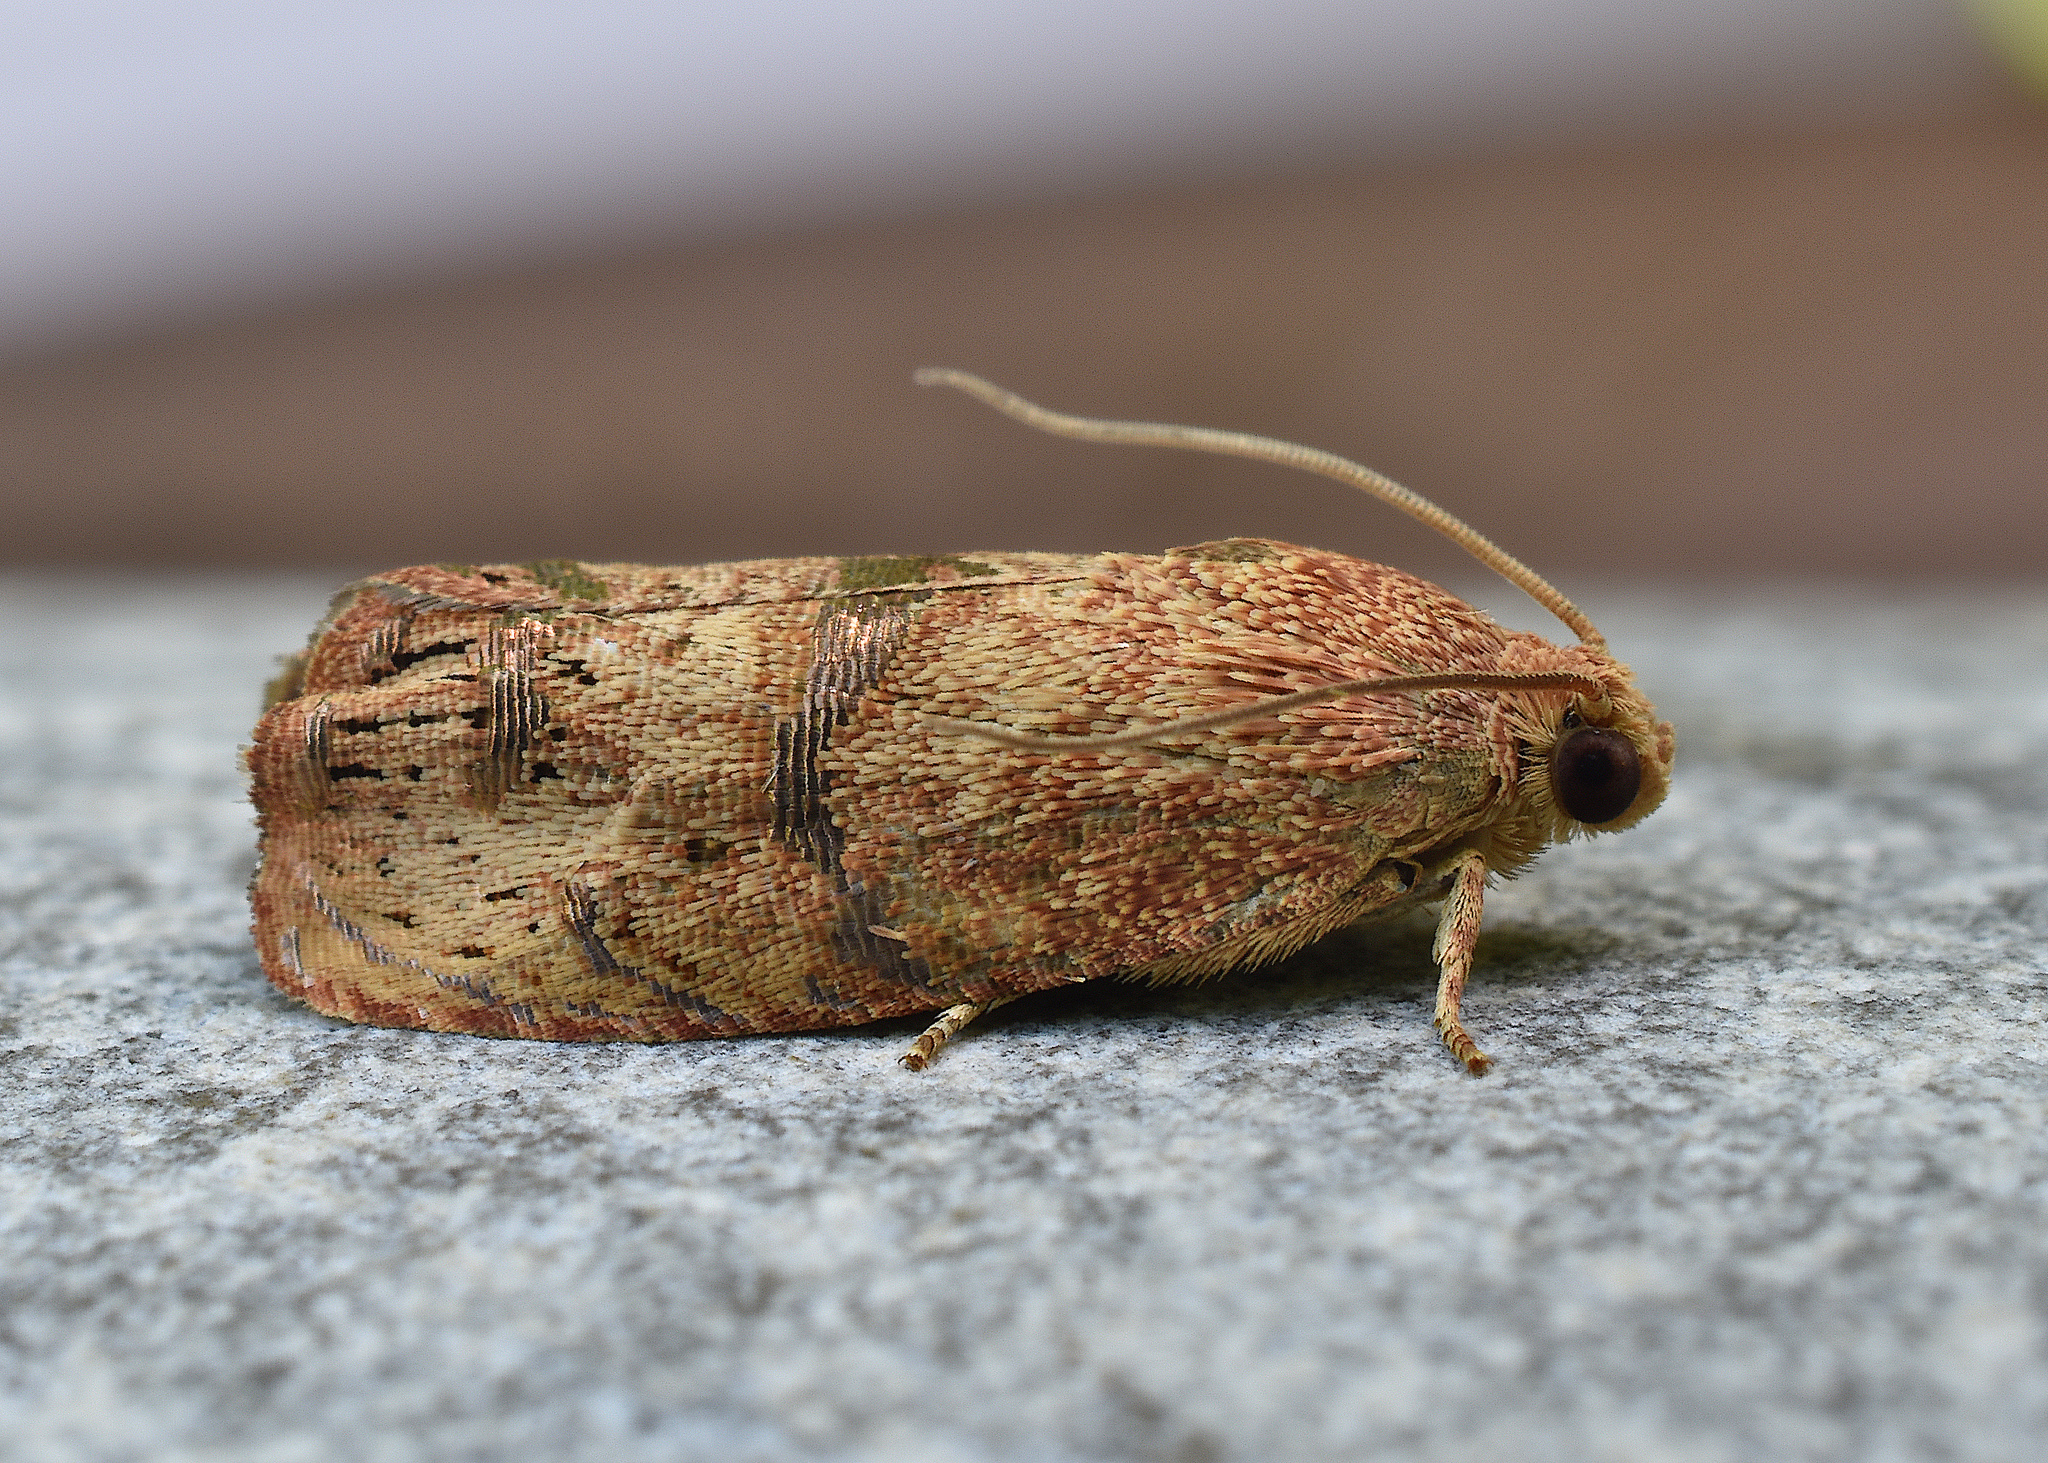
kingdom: Animalia
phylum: Arthropoda
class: Insecta
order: Lepidoptera
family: Tortricidae
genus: Cydia
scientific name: Cydia latiferreana
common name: Filbertworm moth
